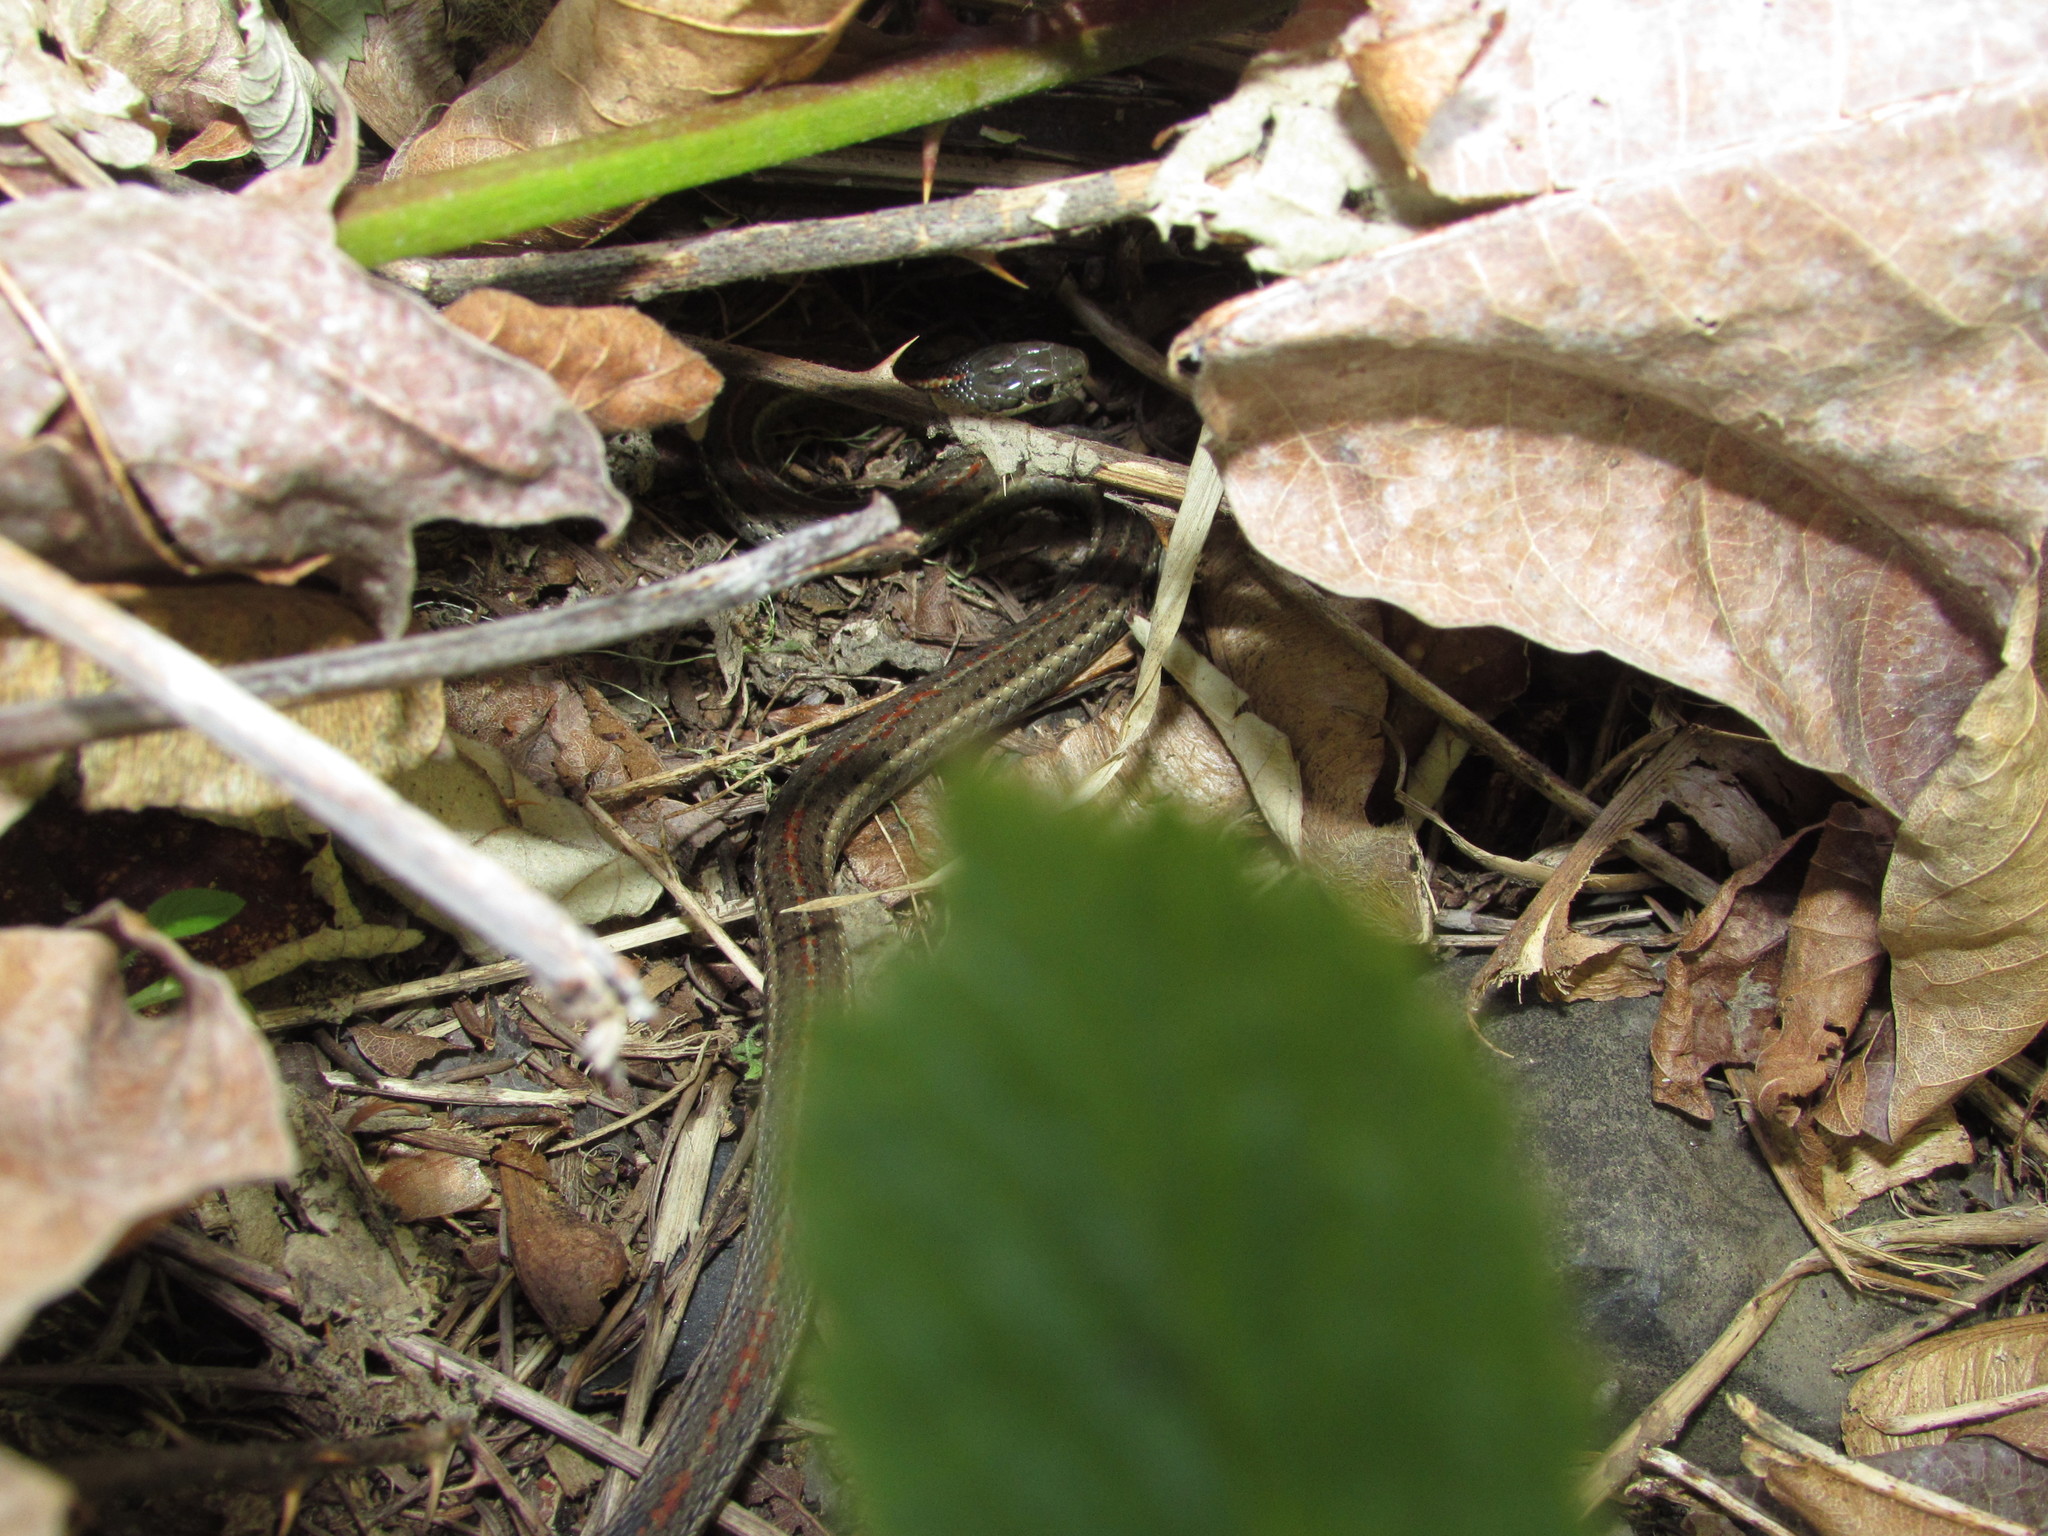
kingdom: Animalia
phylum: Chordata
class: Squamata
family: Colubridae
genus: Thamnophis
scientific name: Thamnophis ordinoides
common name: Northwestern garter snake
